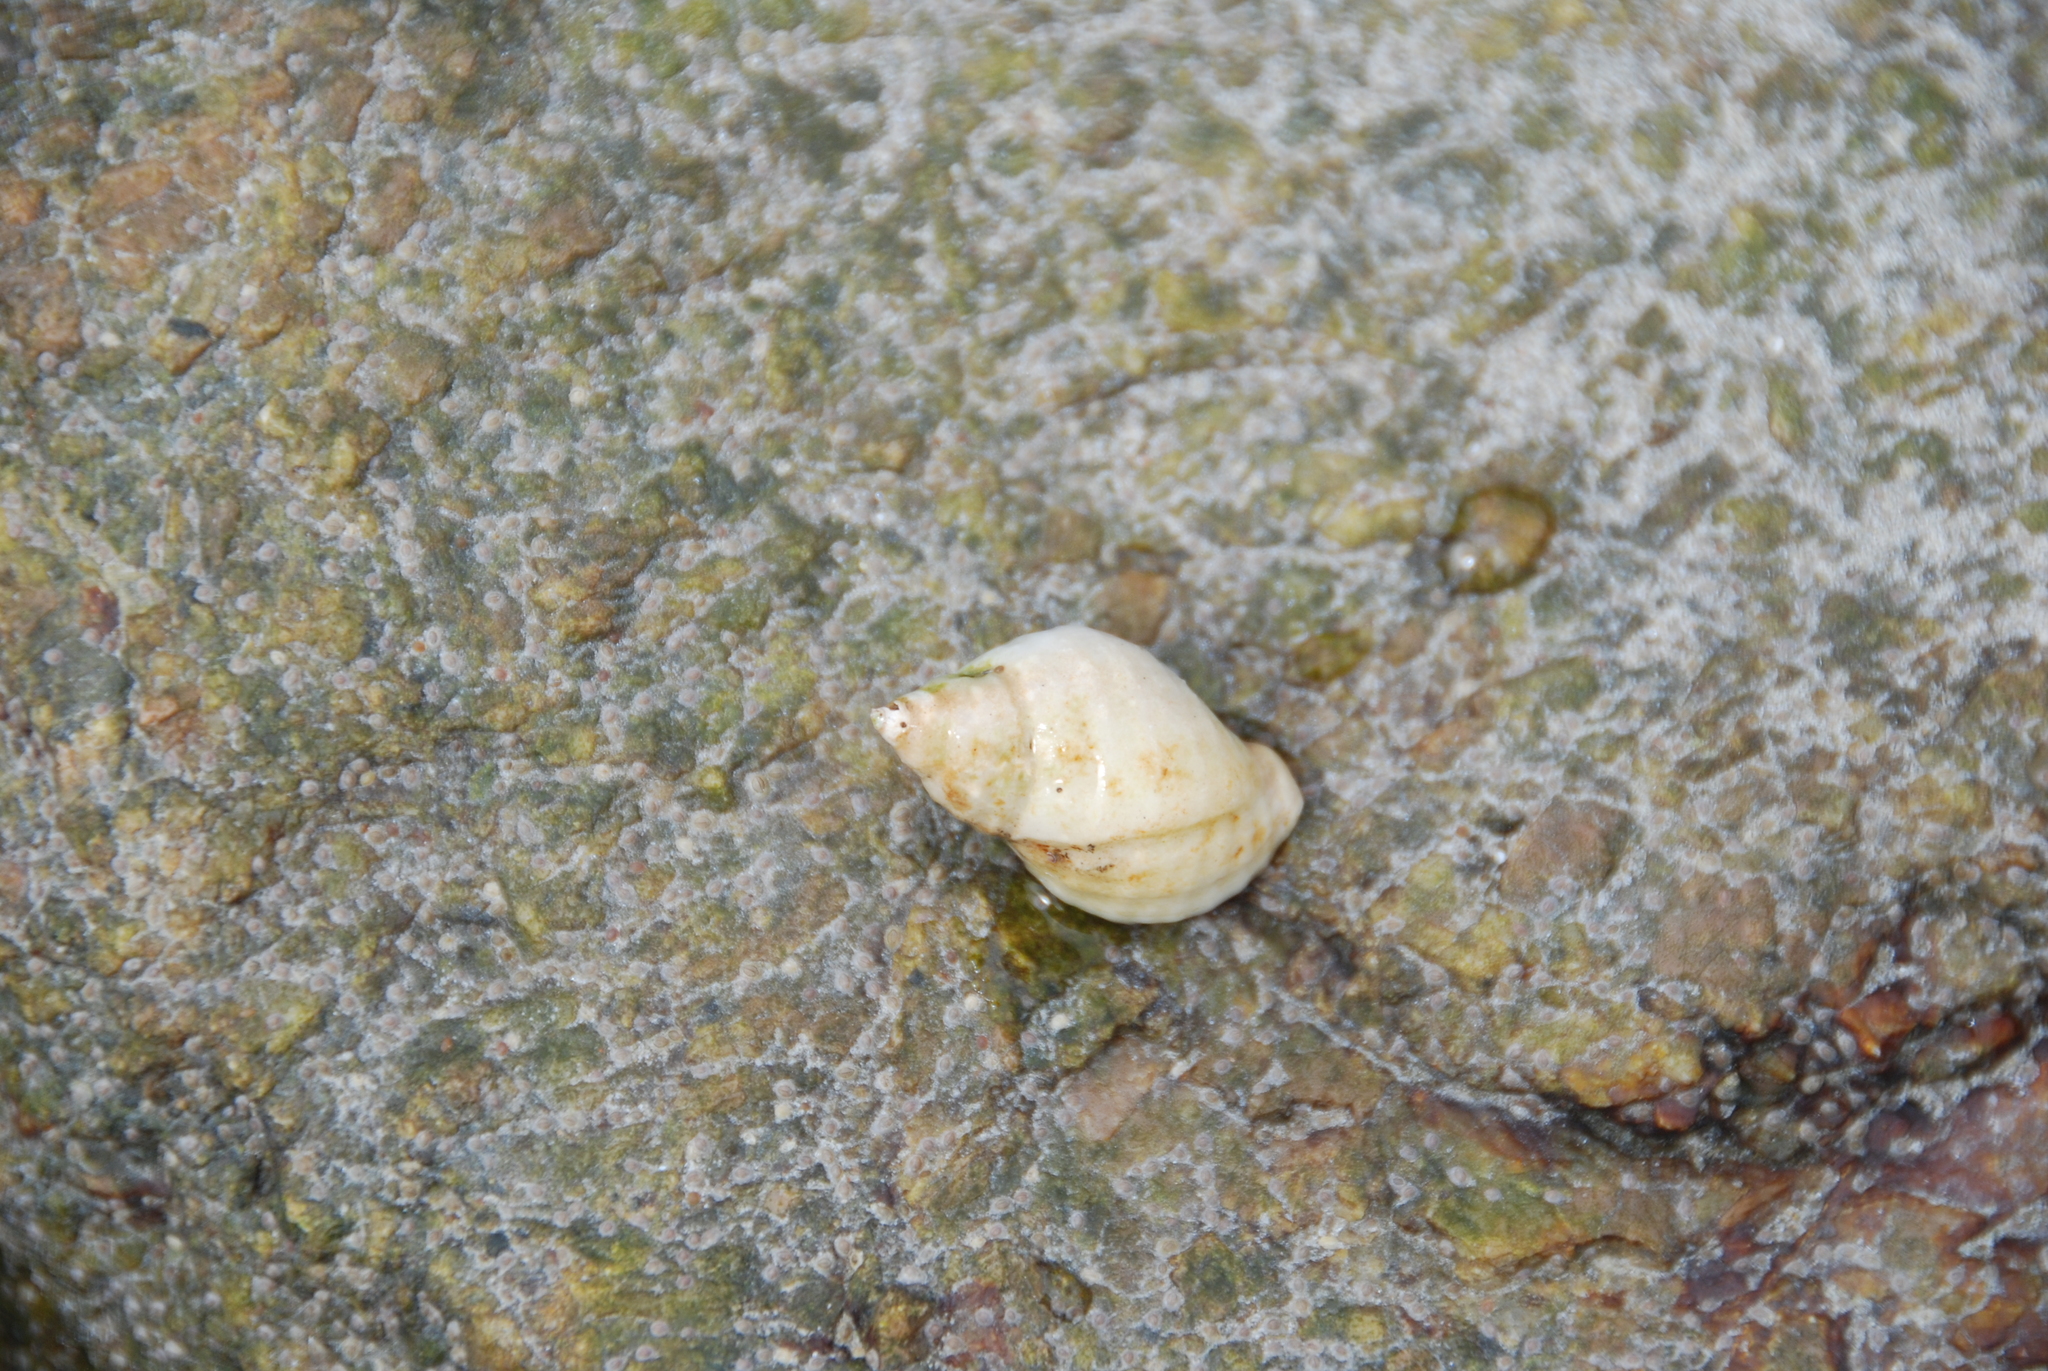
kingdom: Animalia
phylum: Mollusca
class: Gastropoda
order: Neogastropoda
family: Muricidae
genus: Nucella
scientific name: Nucella lapillus
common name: Dog whelk
